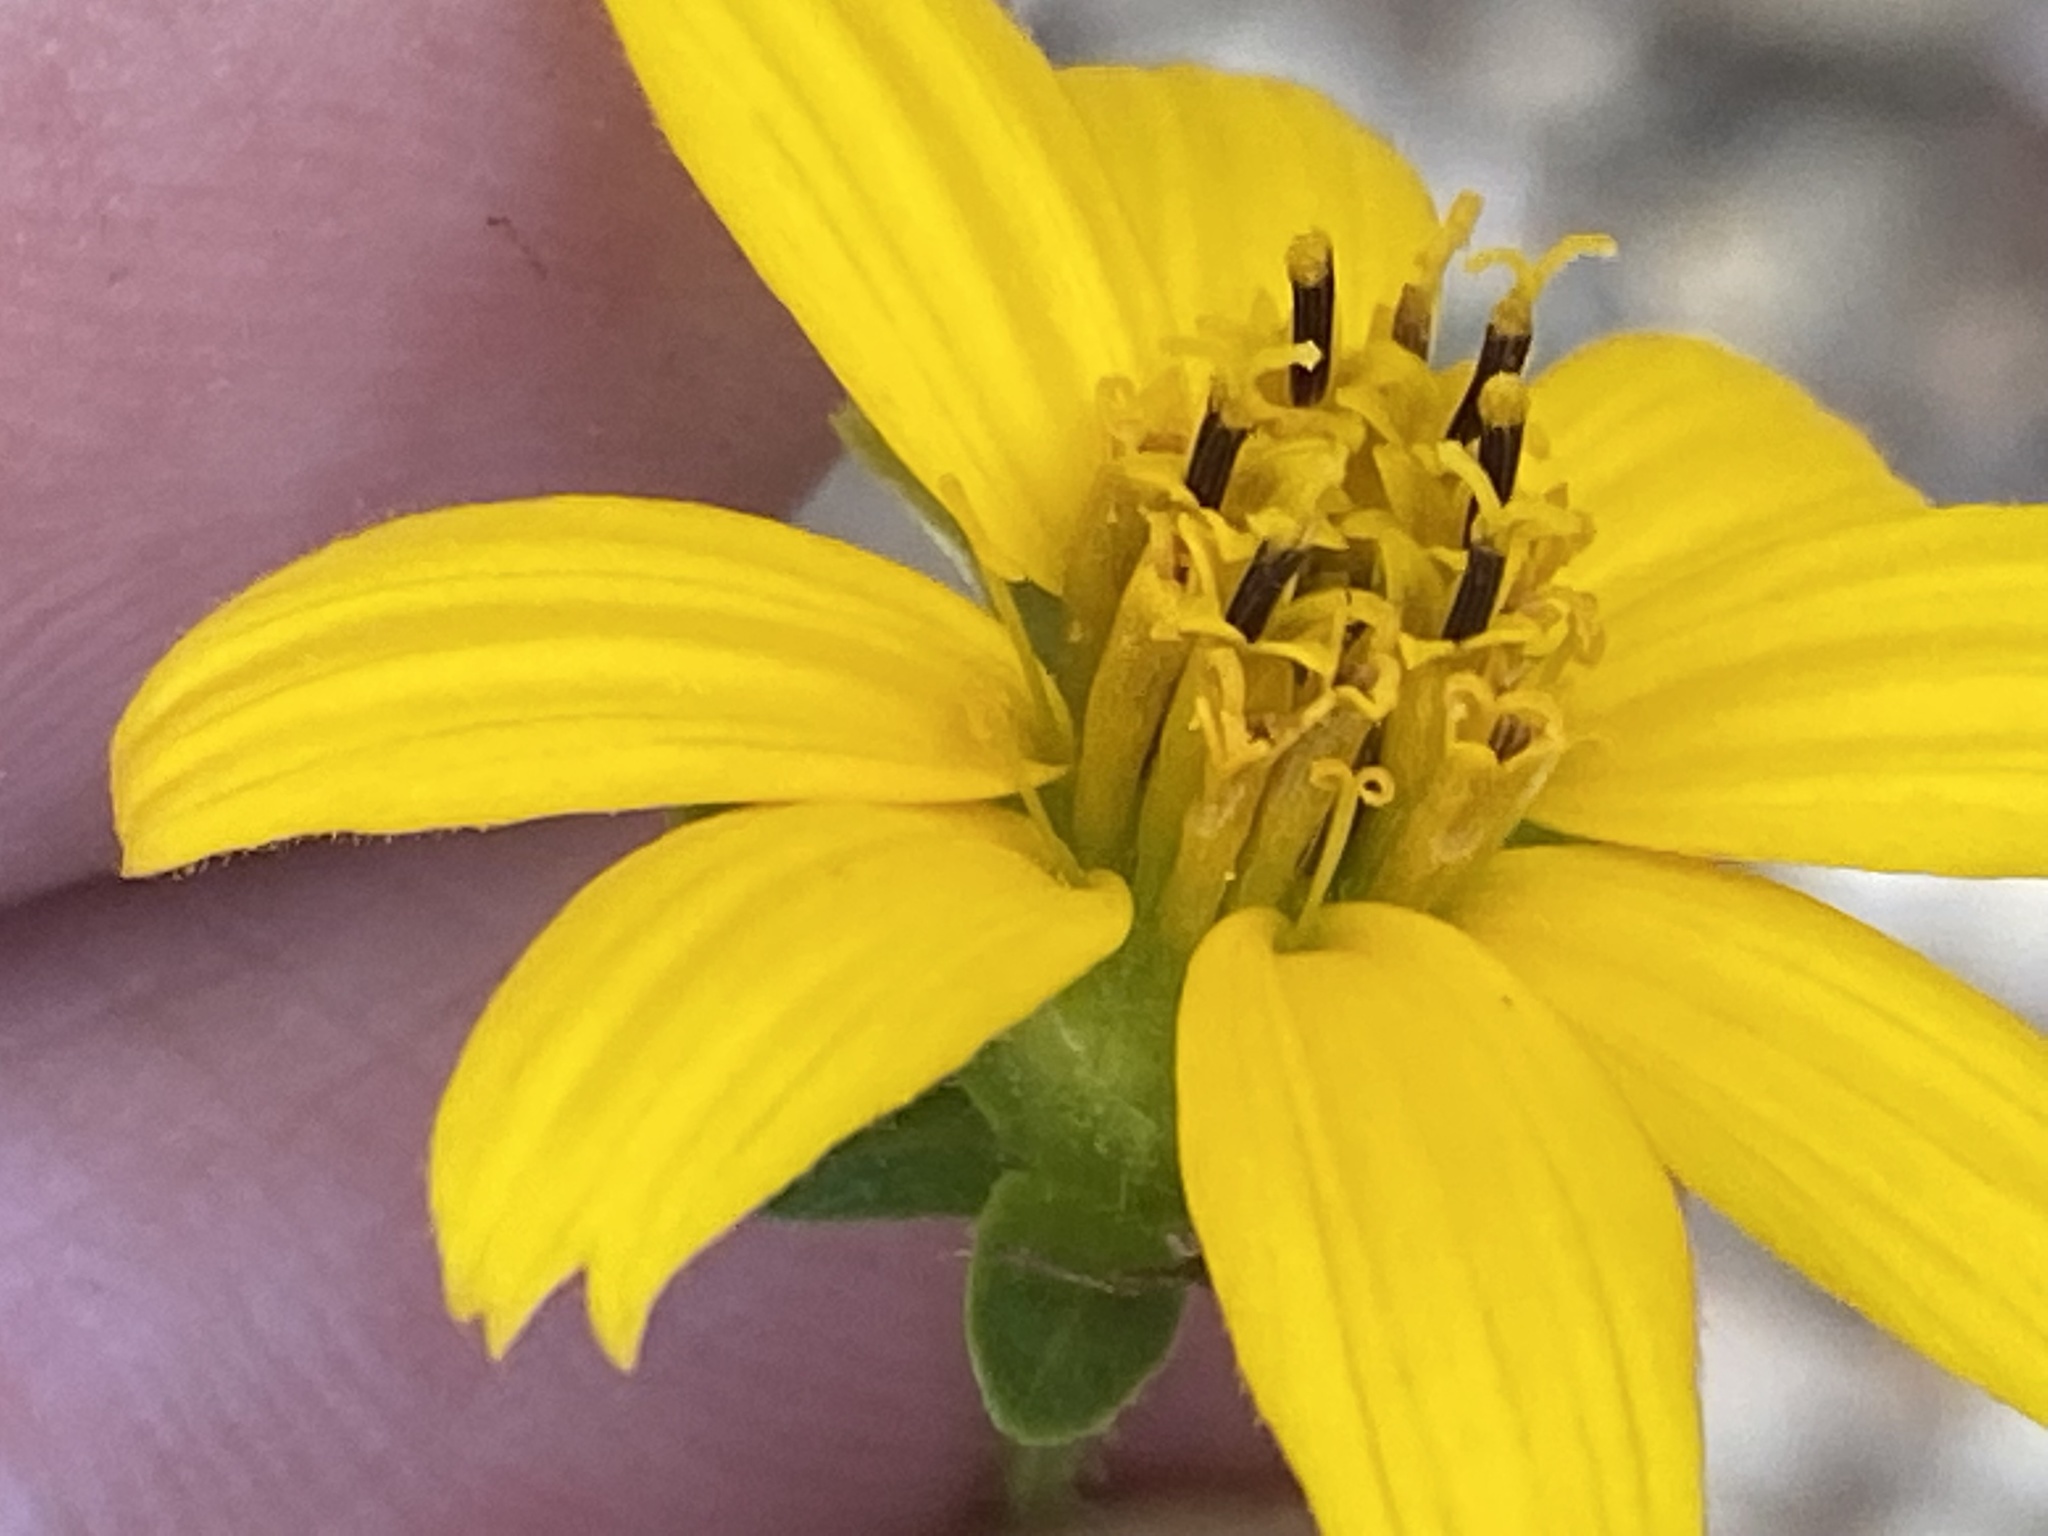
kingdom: Plantae
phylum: Tracheophyta
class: Magnoliopsida
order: Asterales
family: Asteraceae
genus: Jamesianthus
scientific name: Jamesianthus alabamensis
